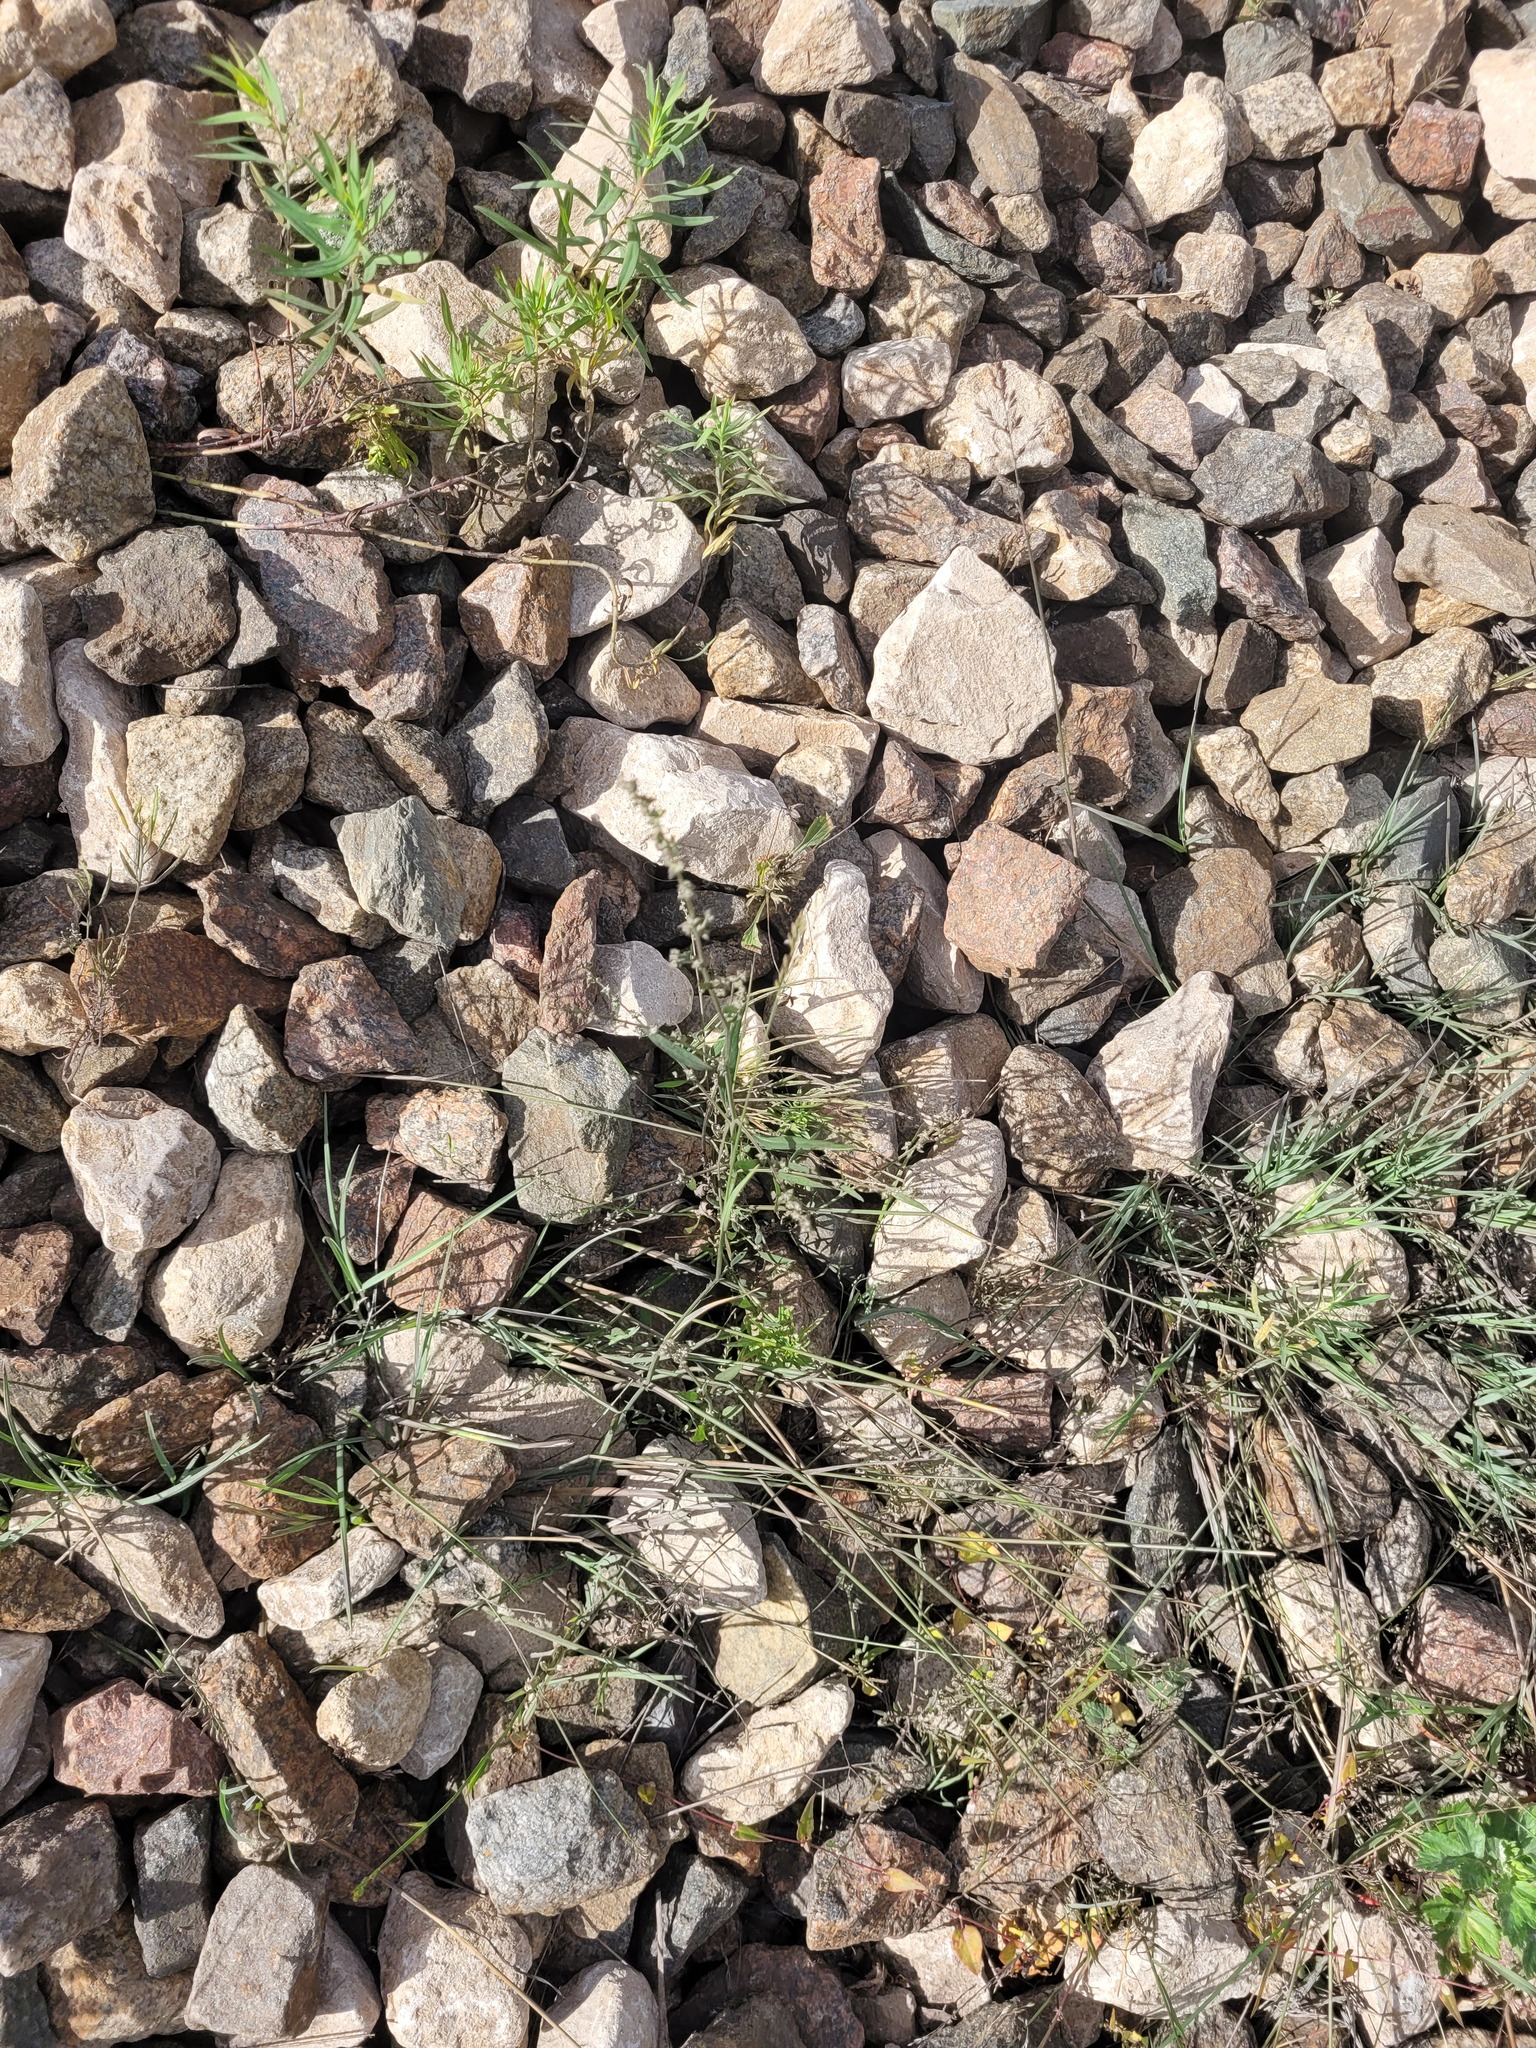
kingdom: Plantae
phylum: Tracheophyta
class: Magnoliopsida
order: Caryophyllales
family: Amaranthaceae
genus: Atriplex
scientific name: Atriplex patula
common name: Common orache
